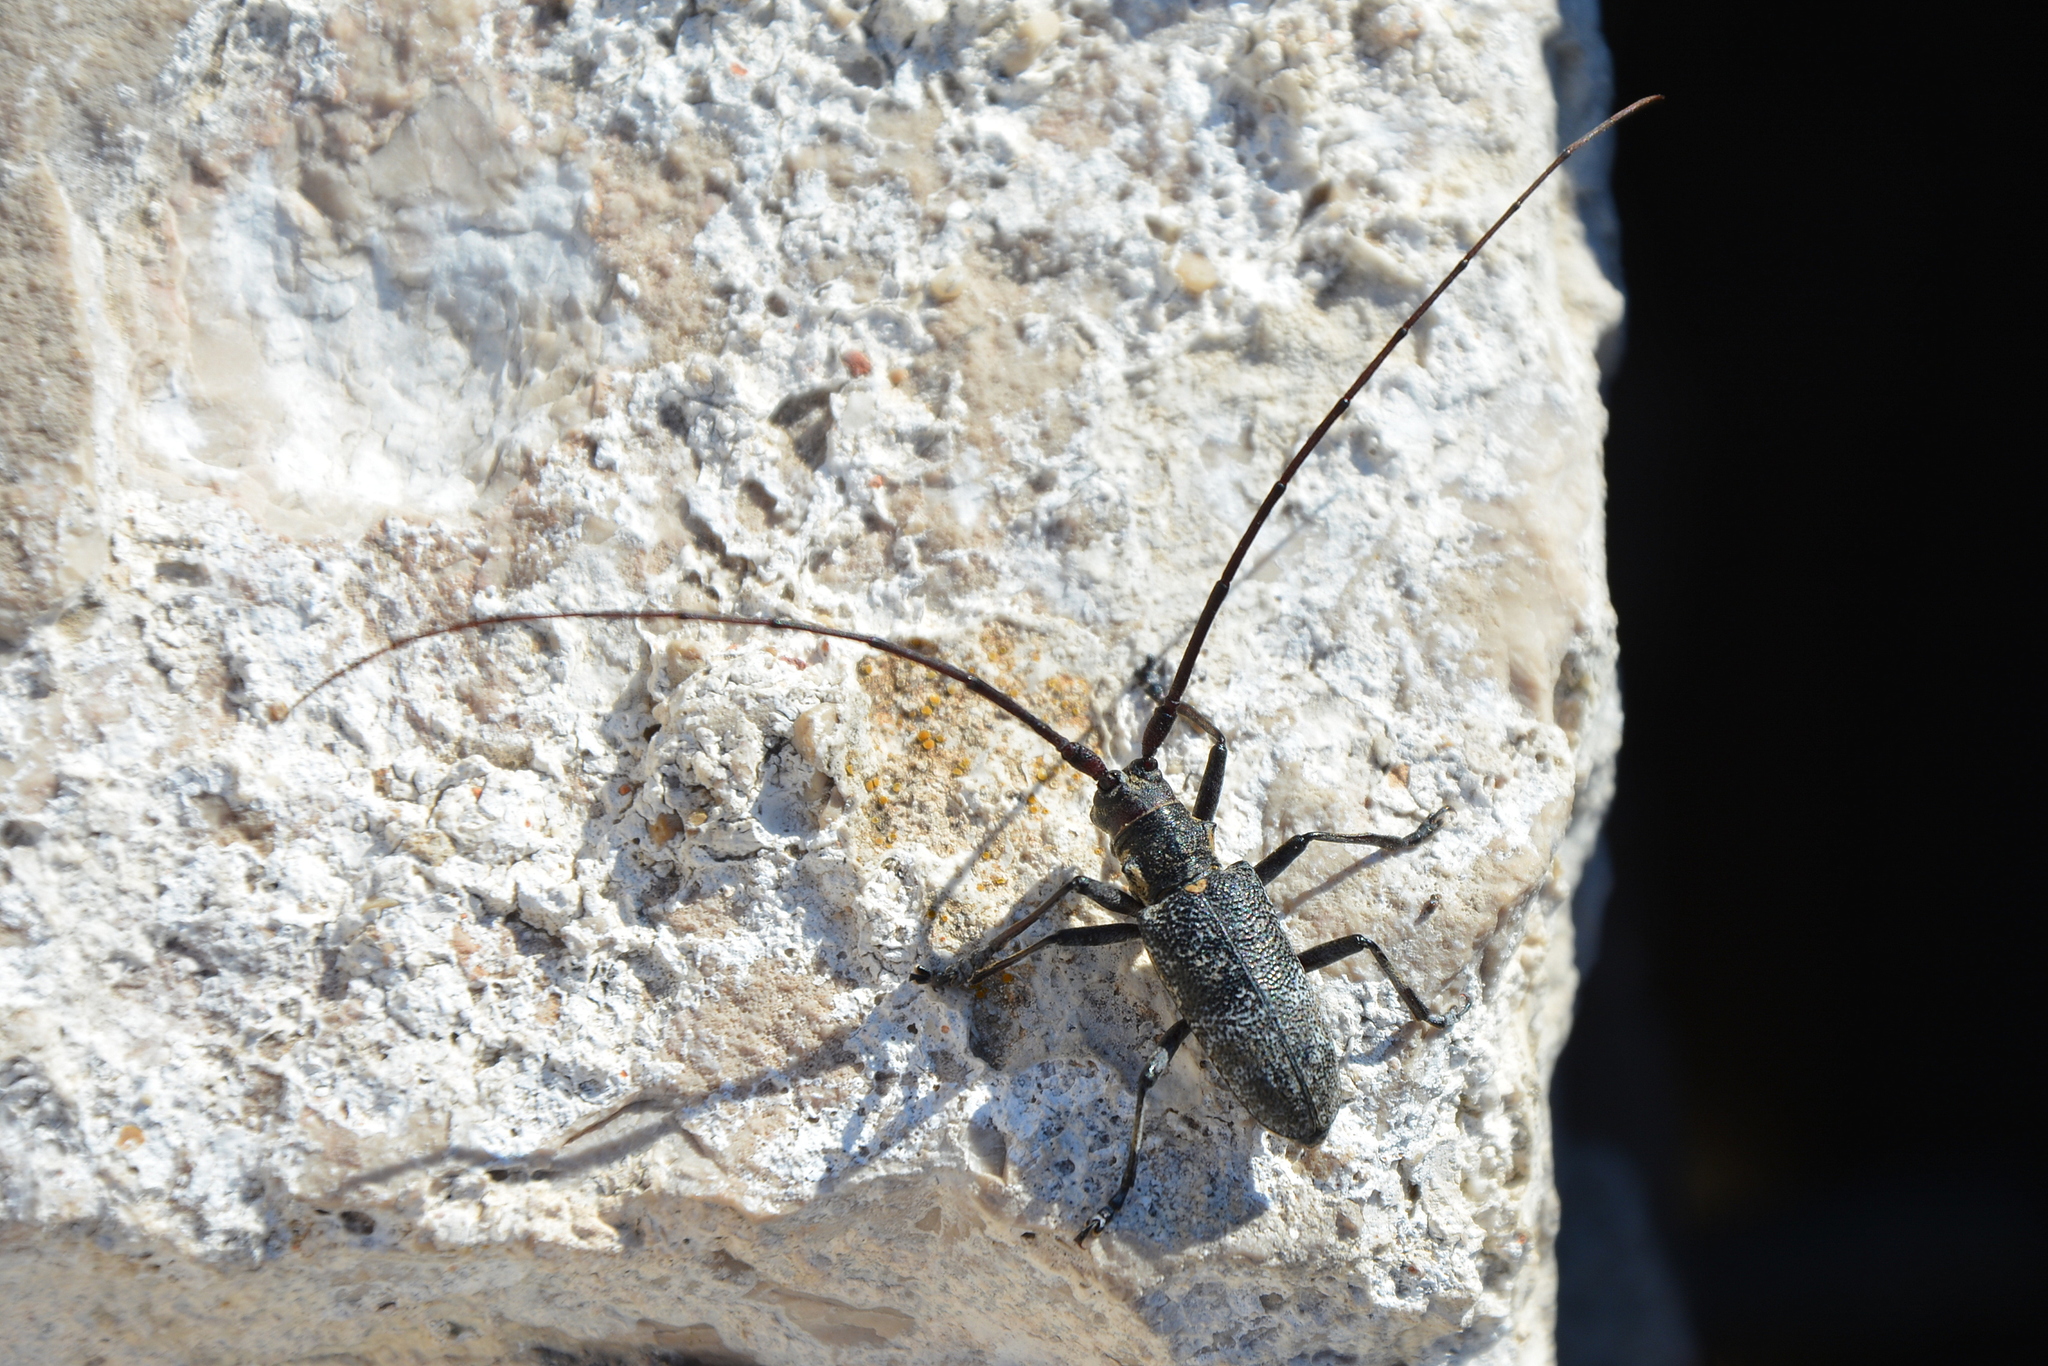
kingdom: Animalia
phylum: Arthropoda
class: Insecta
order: Coleoptera
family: Cerambycidae
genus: Monochamus
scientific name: Monochamus galloprovincialis
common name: Pine sawyer
